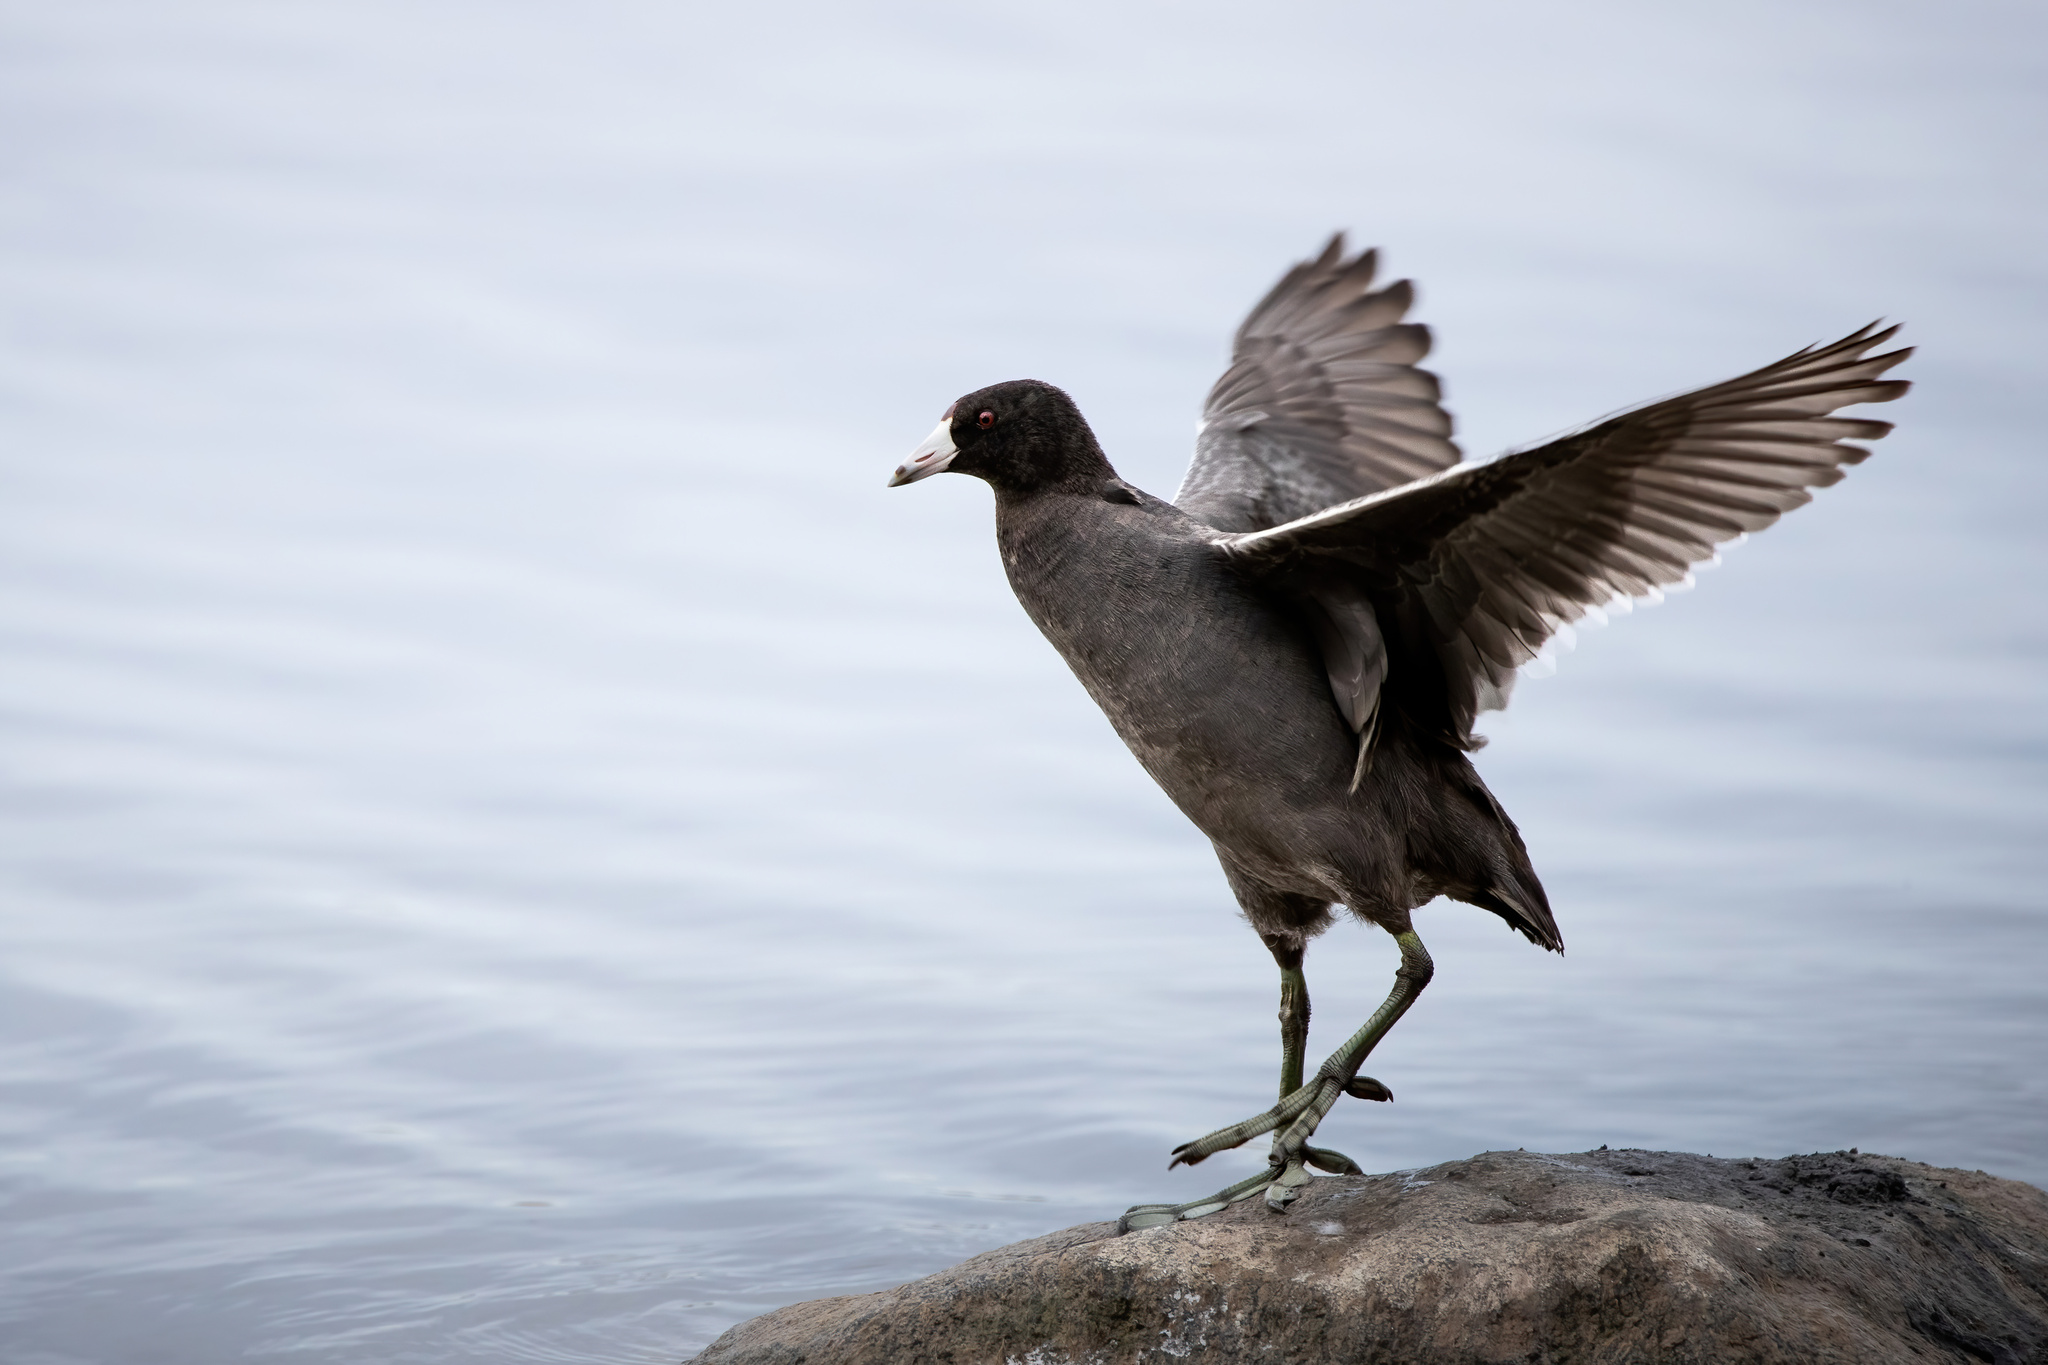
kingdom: Animalia
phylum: Chordata
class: Aves
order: Gruiformes
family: Rallidae
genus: Fulica
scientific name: Fulica americana
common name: American coot
